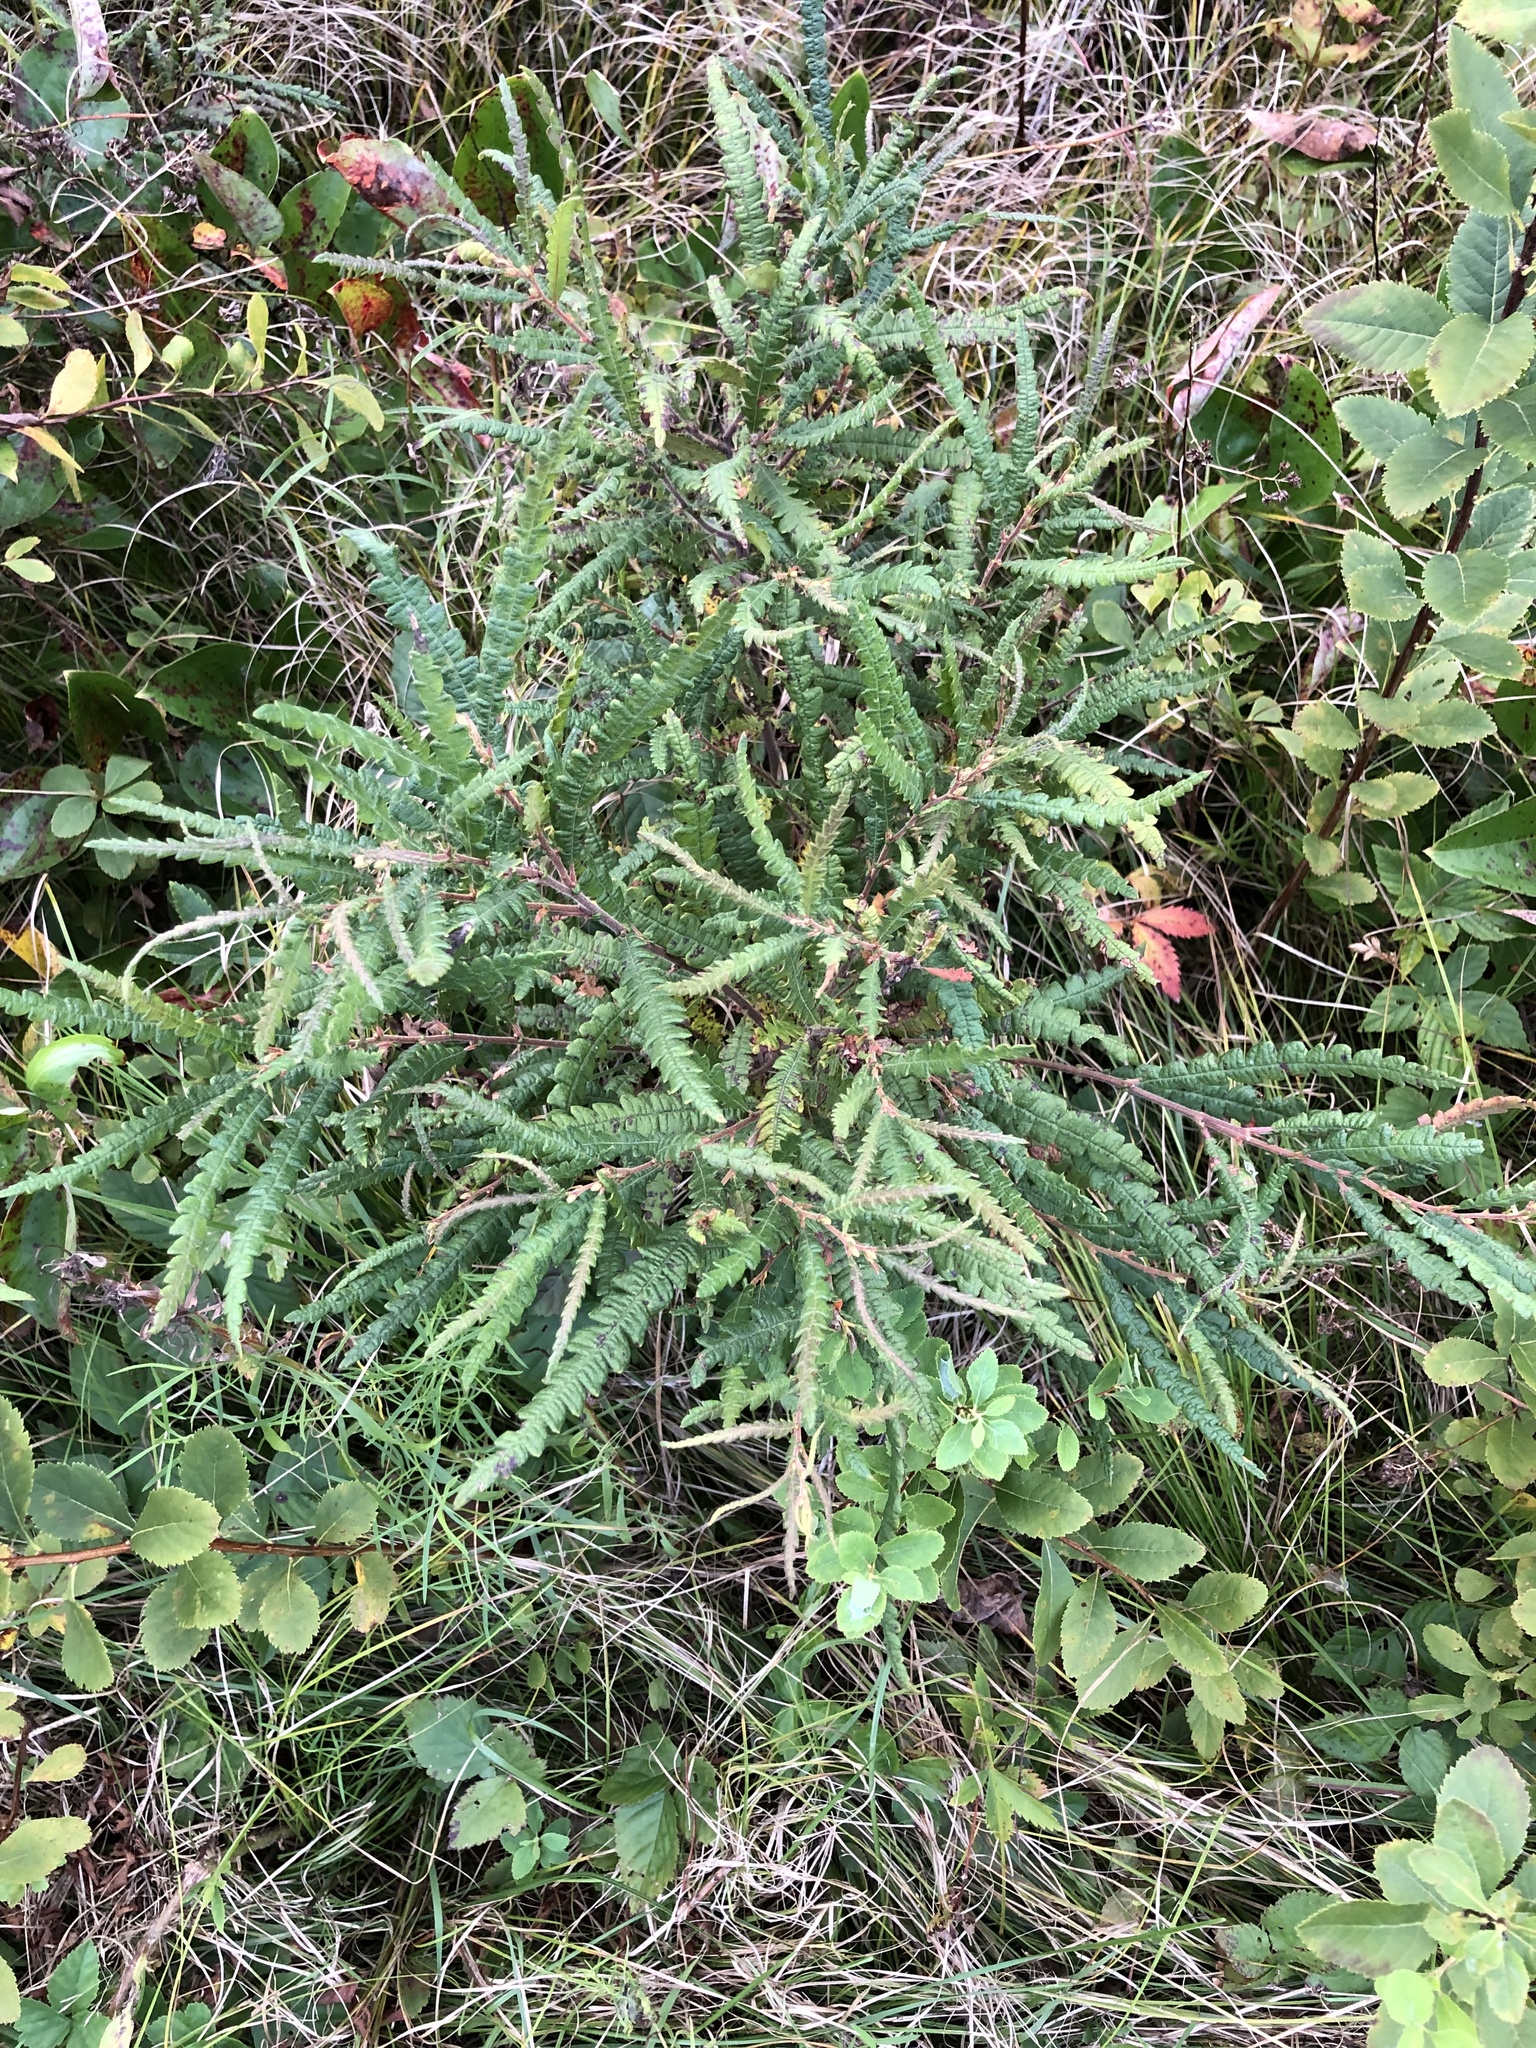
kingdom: Plantae
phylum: Tracheophyta
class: Magnoliopsida
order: Fagales
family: Myricaceae
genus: Comptonia
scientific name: Comptonia peregrina
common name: Sweet-fern
